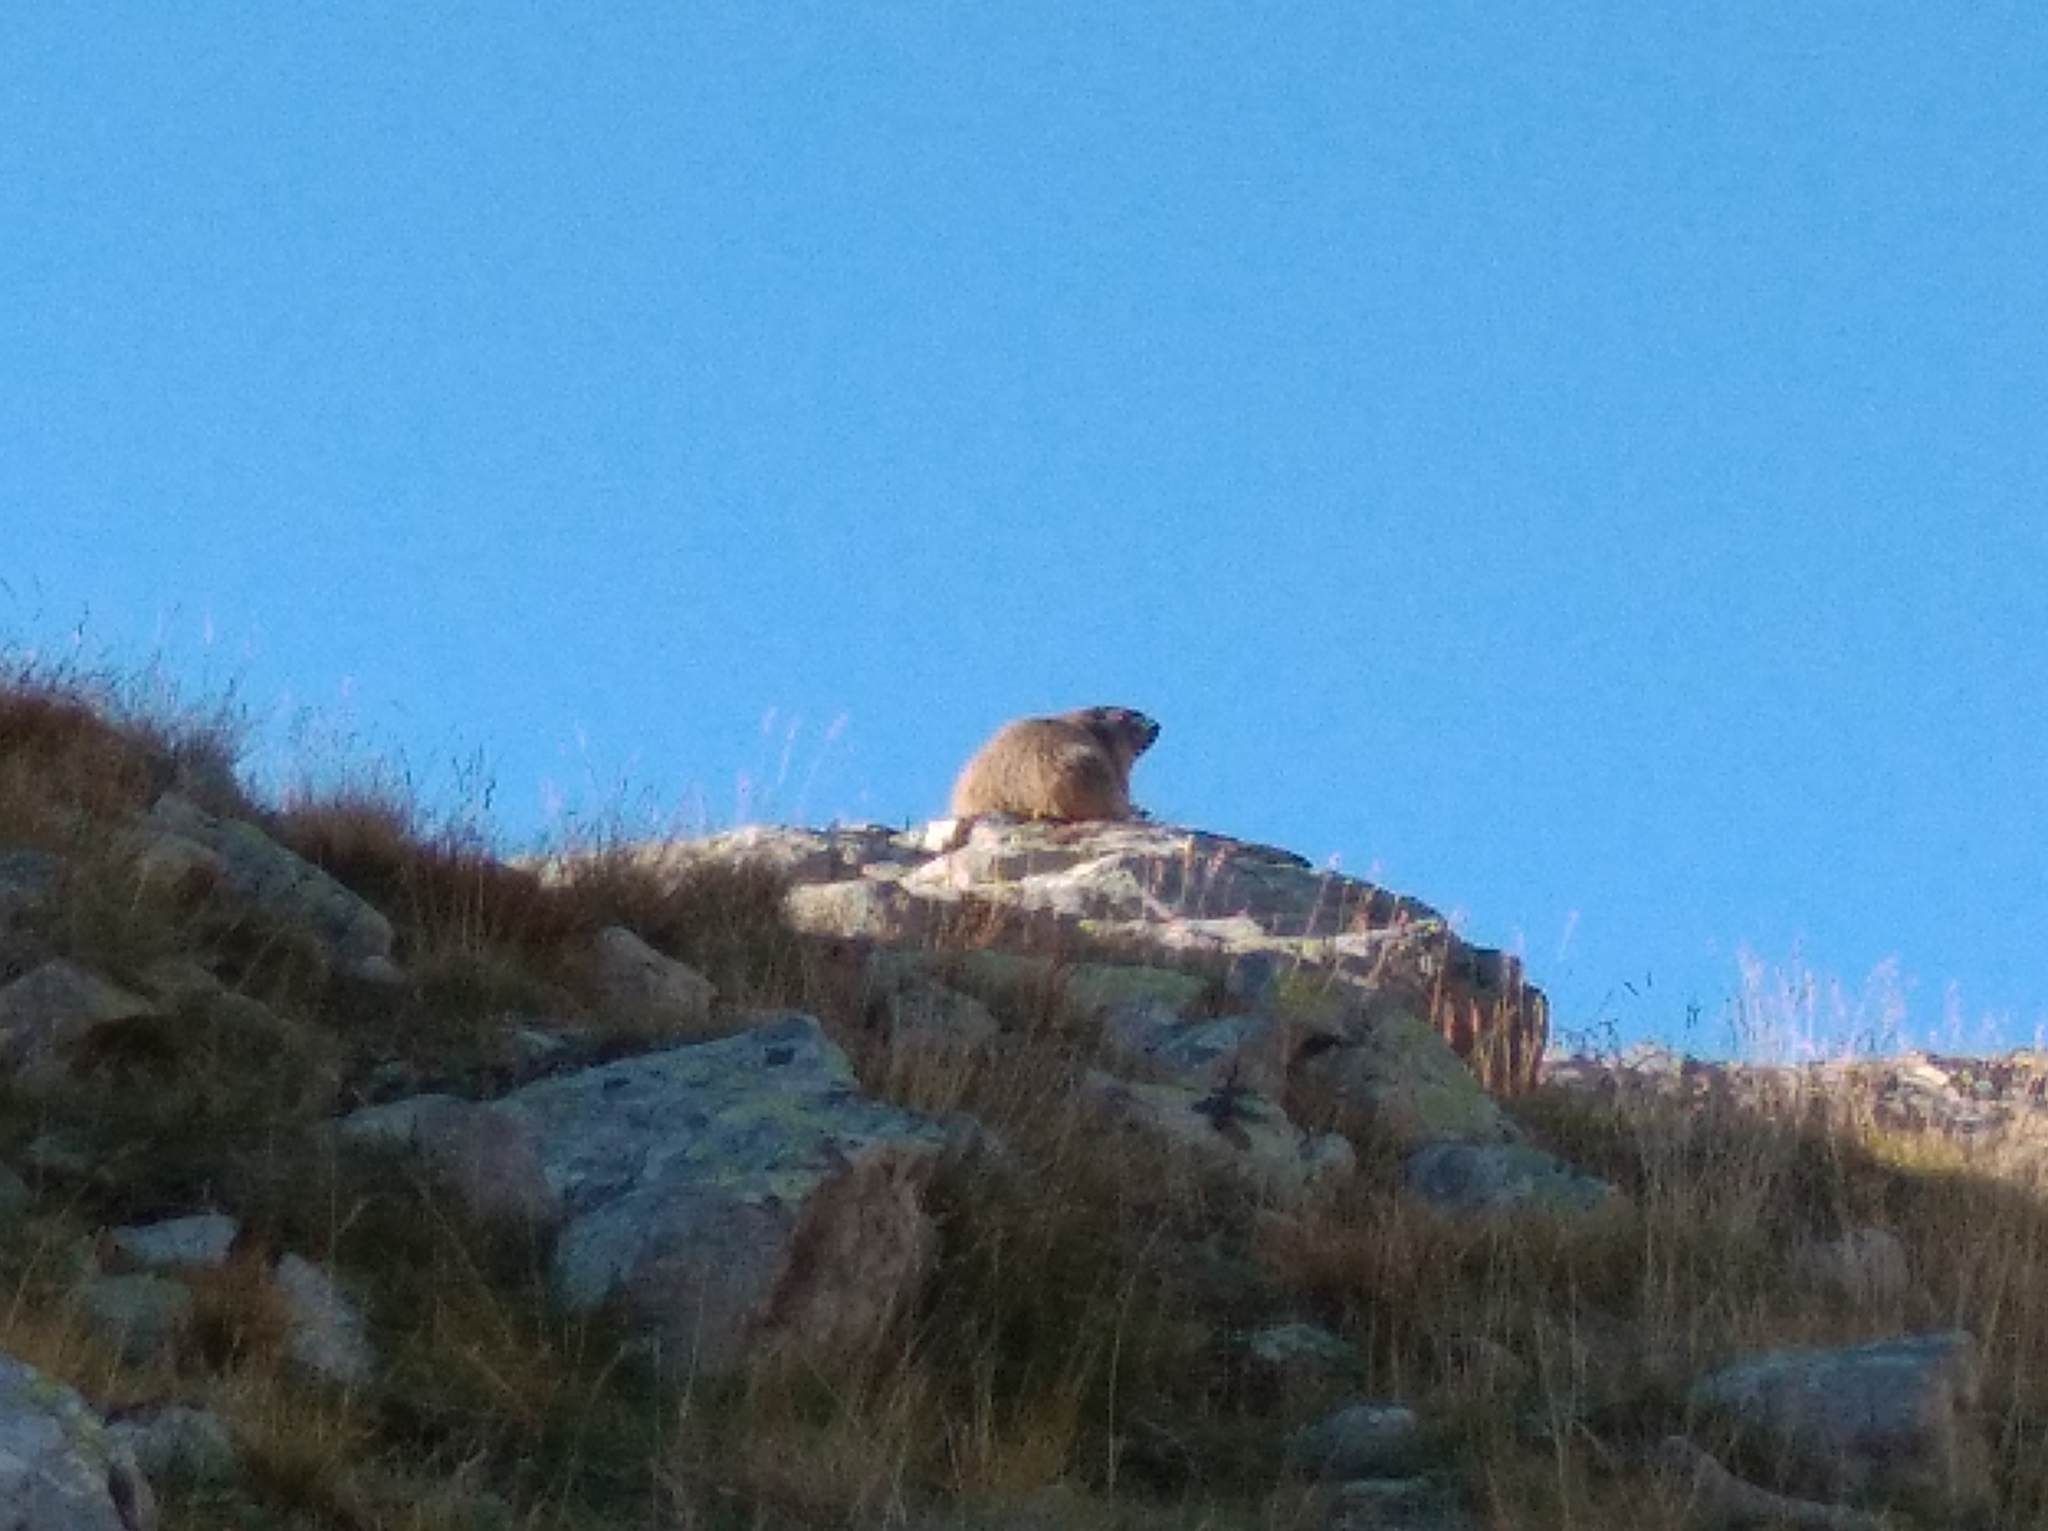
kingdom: Animalia
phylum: Chordata
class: Mammalia
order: Rodentia
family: Sciuridae
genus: Marmota
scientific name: Marmota marmota
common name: Alpine marmot
